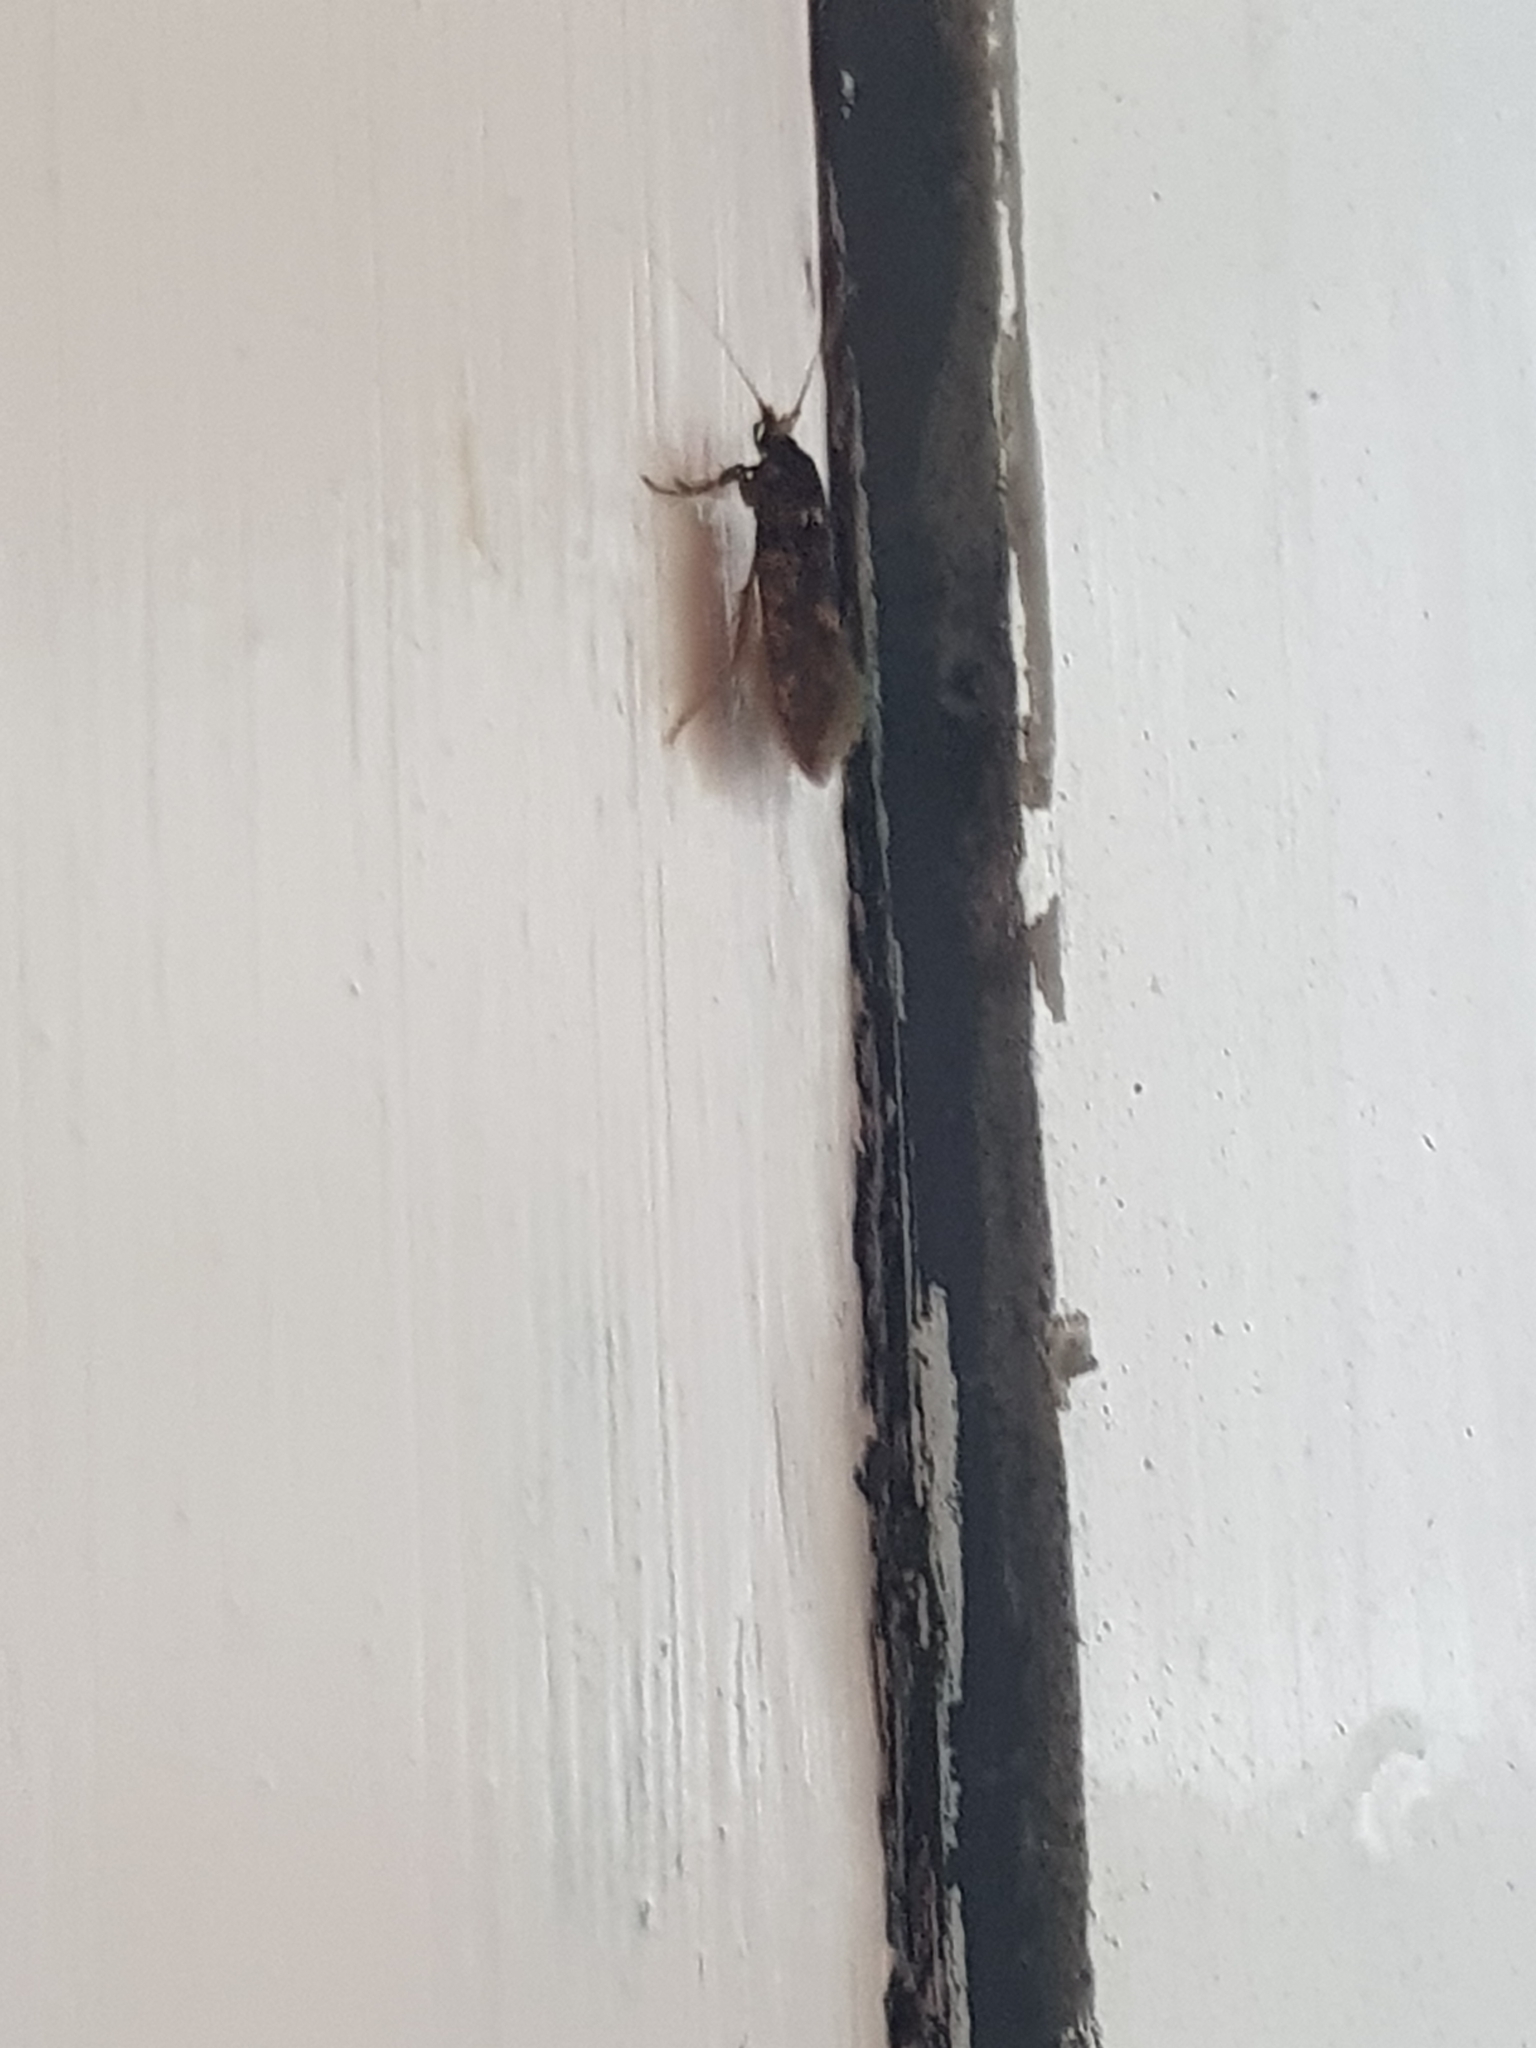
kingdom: Animalia
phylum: Arthropoda
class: Insecta
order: Lepidoptera
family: Tineidae
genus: Opogona
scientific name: Opogona omoscopa
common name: Moth
